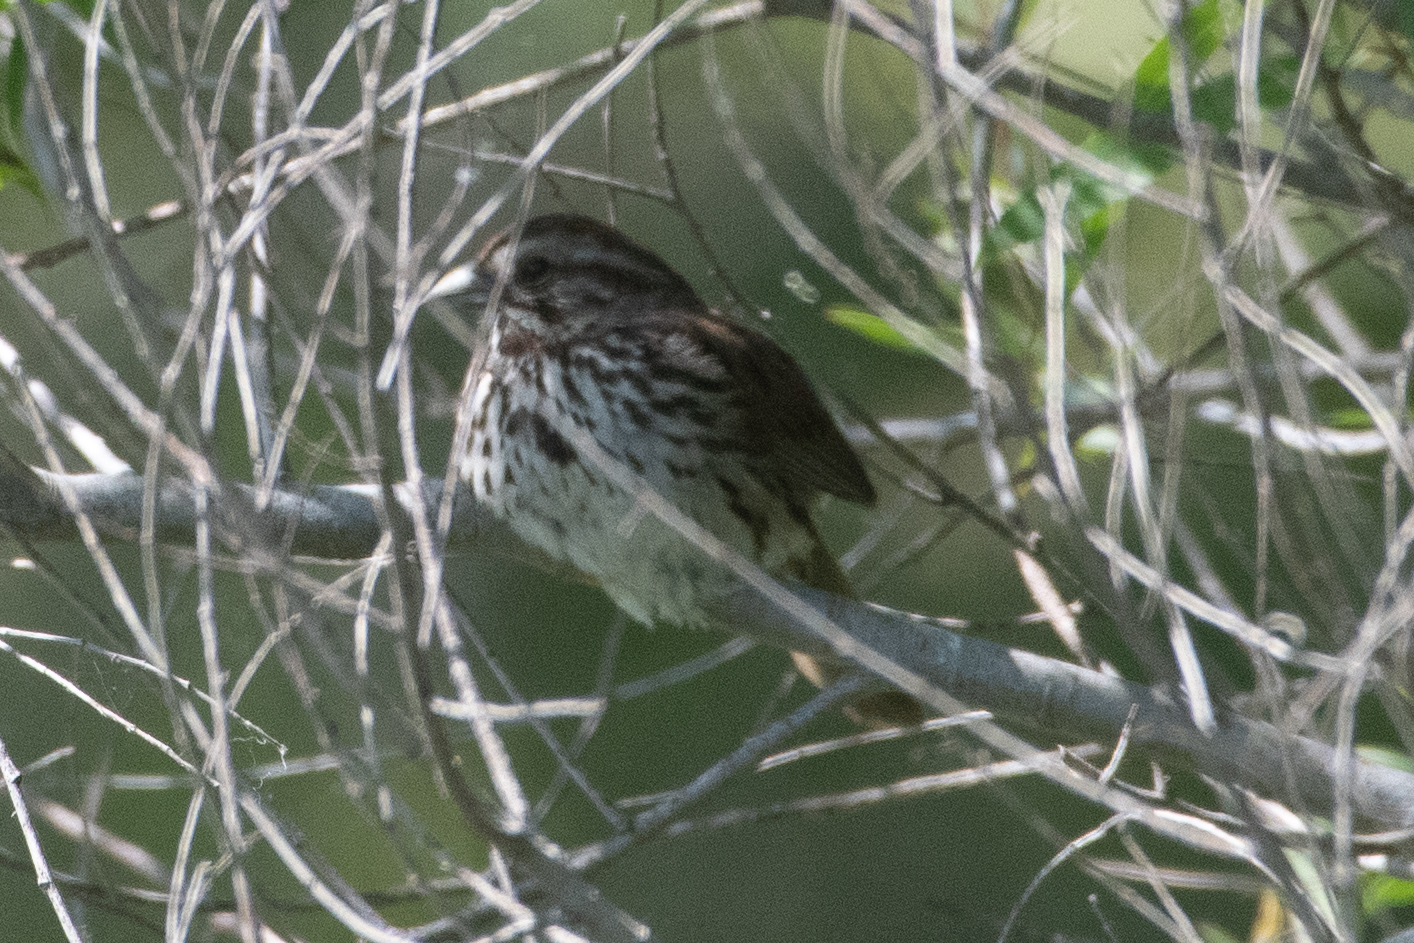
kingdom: Animalia
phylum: Chordata
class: Aves
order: Passeriformes
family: Passerellidae
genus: Melospiza
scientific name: Melospiza melodia
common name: Song sparrow
